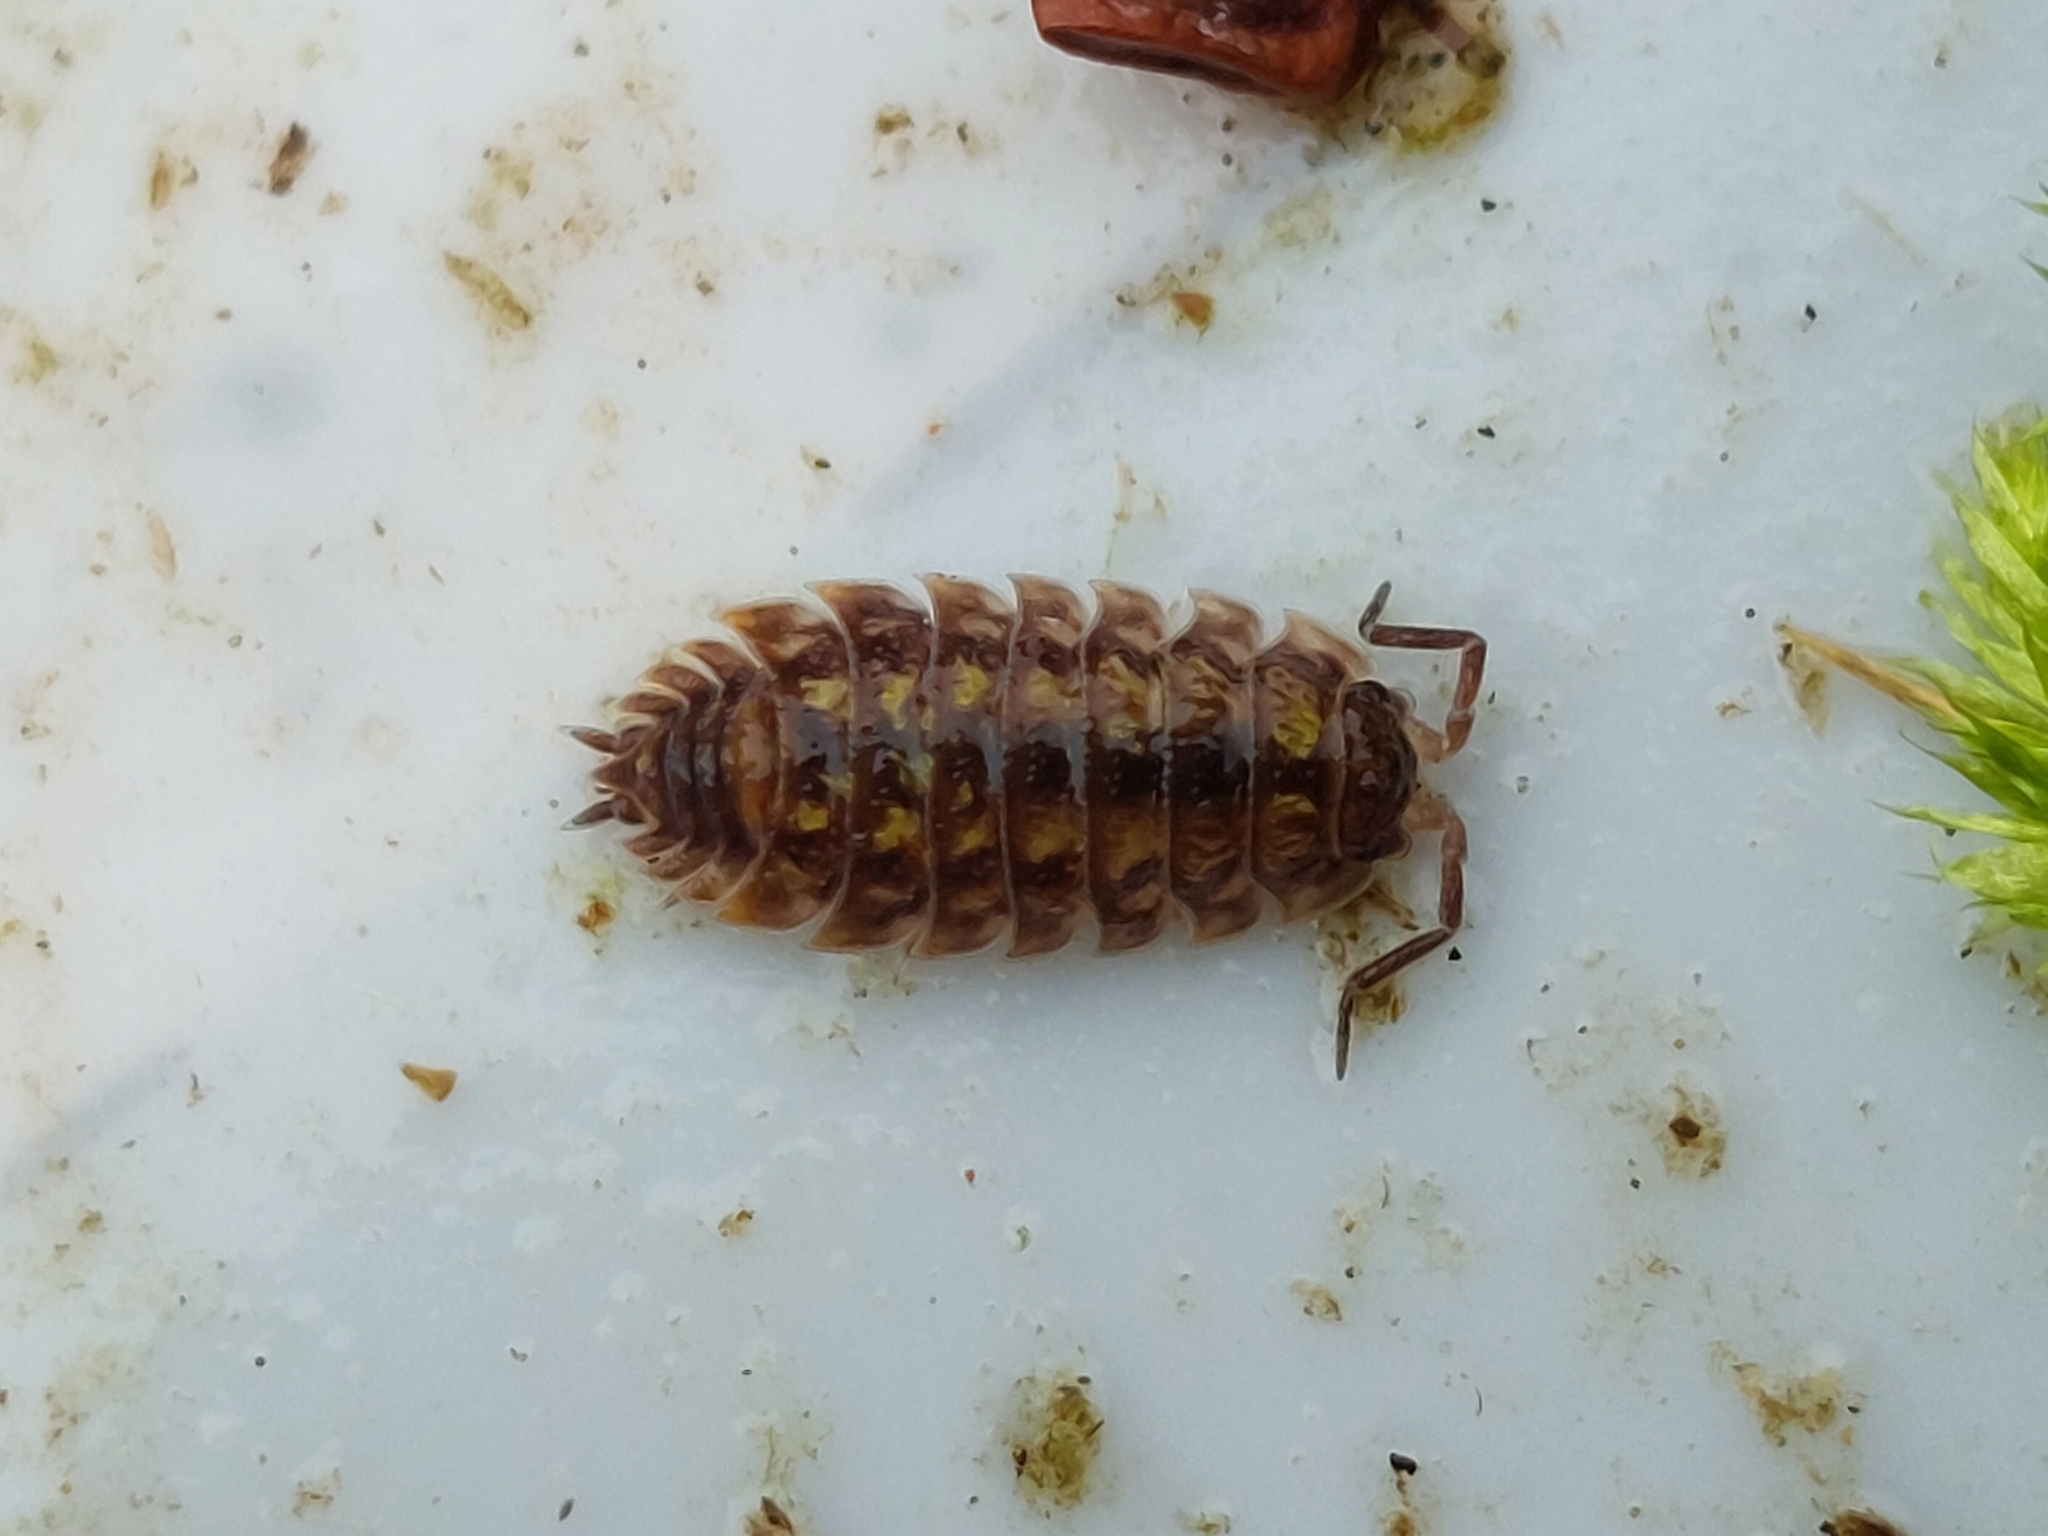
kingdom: Animalia
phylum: Arthropoda
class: Malacostraca
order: Isopoda
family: Oniscidae
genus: Oniscus
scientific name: Oniscus asellus
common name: Common shiny woodlouse
